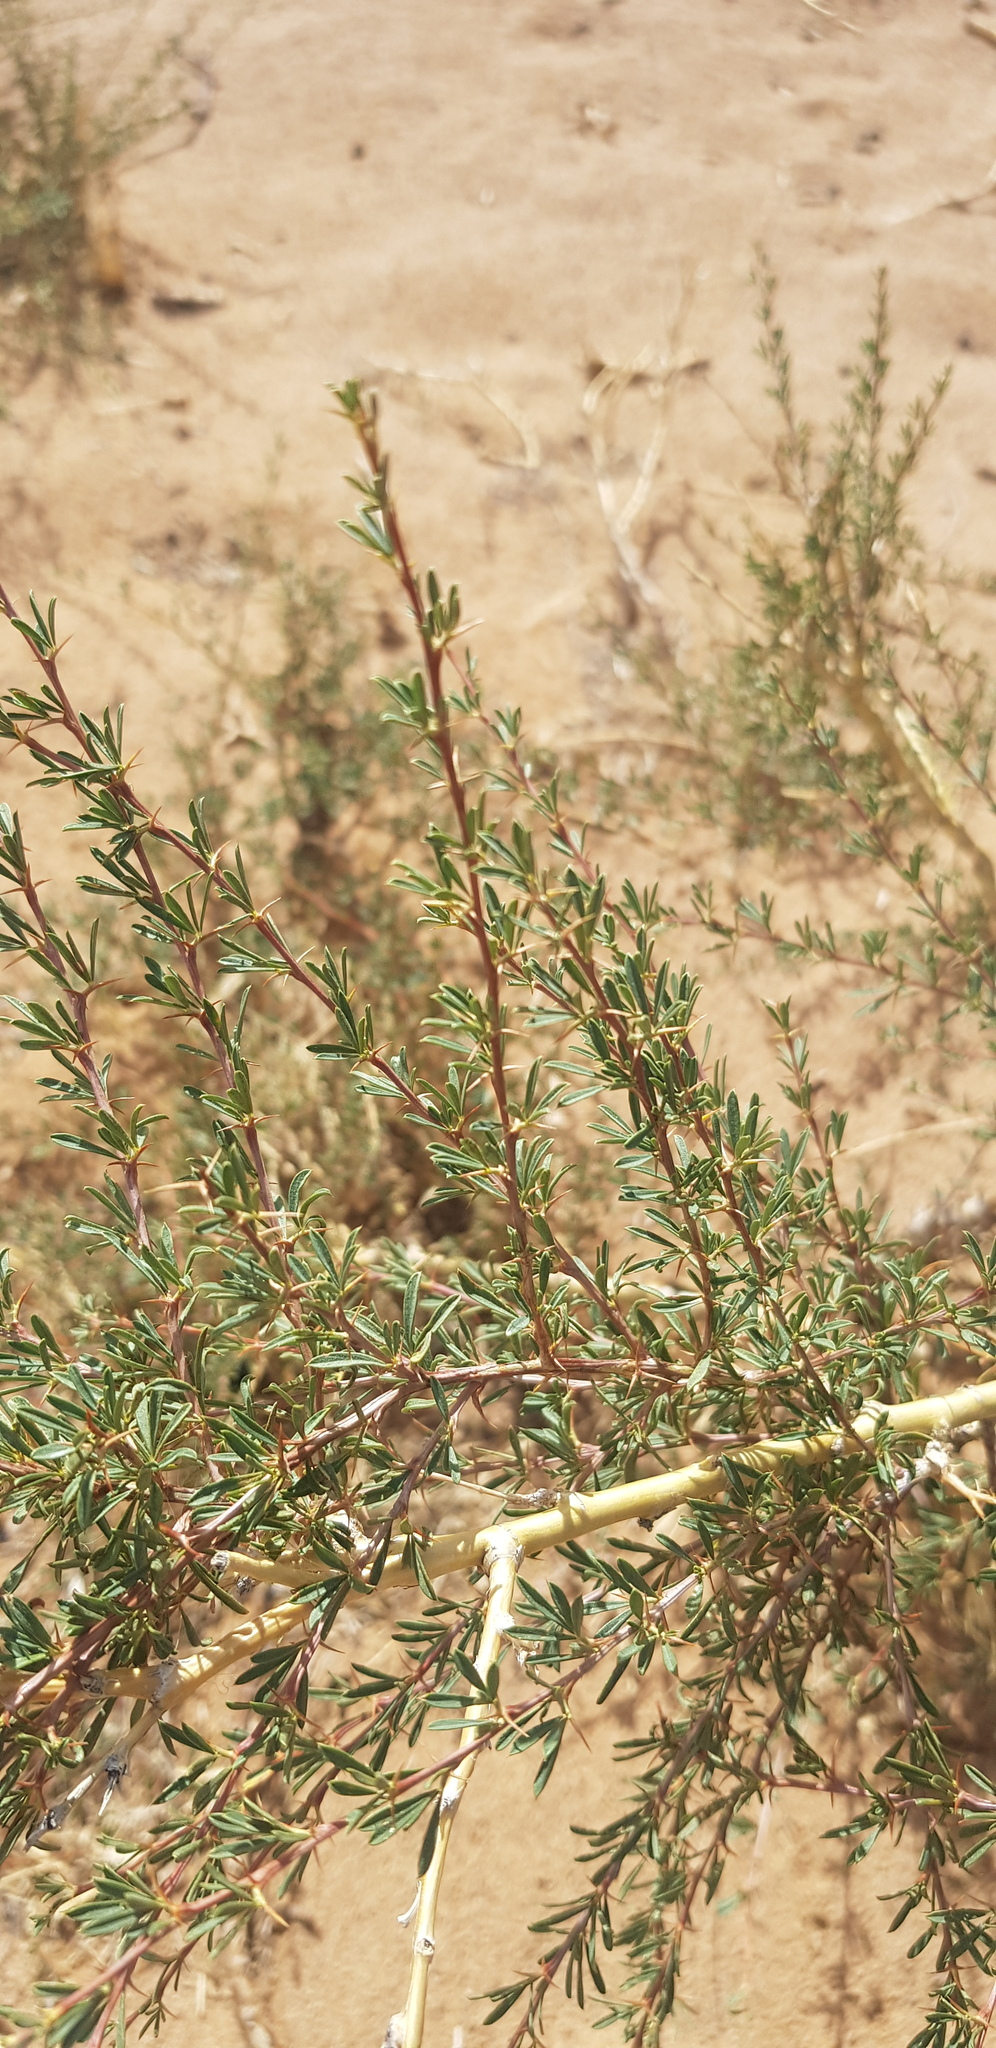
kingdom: Plantae
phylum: Tracheophyta
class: Magnoliopsida
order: Fabales
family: Fabaceae
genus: Caragana
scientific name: Caragana pygmaea
